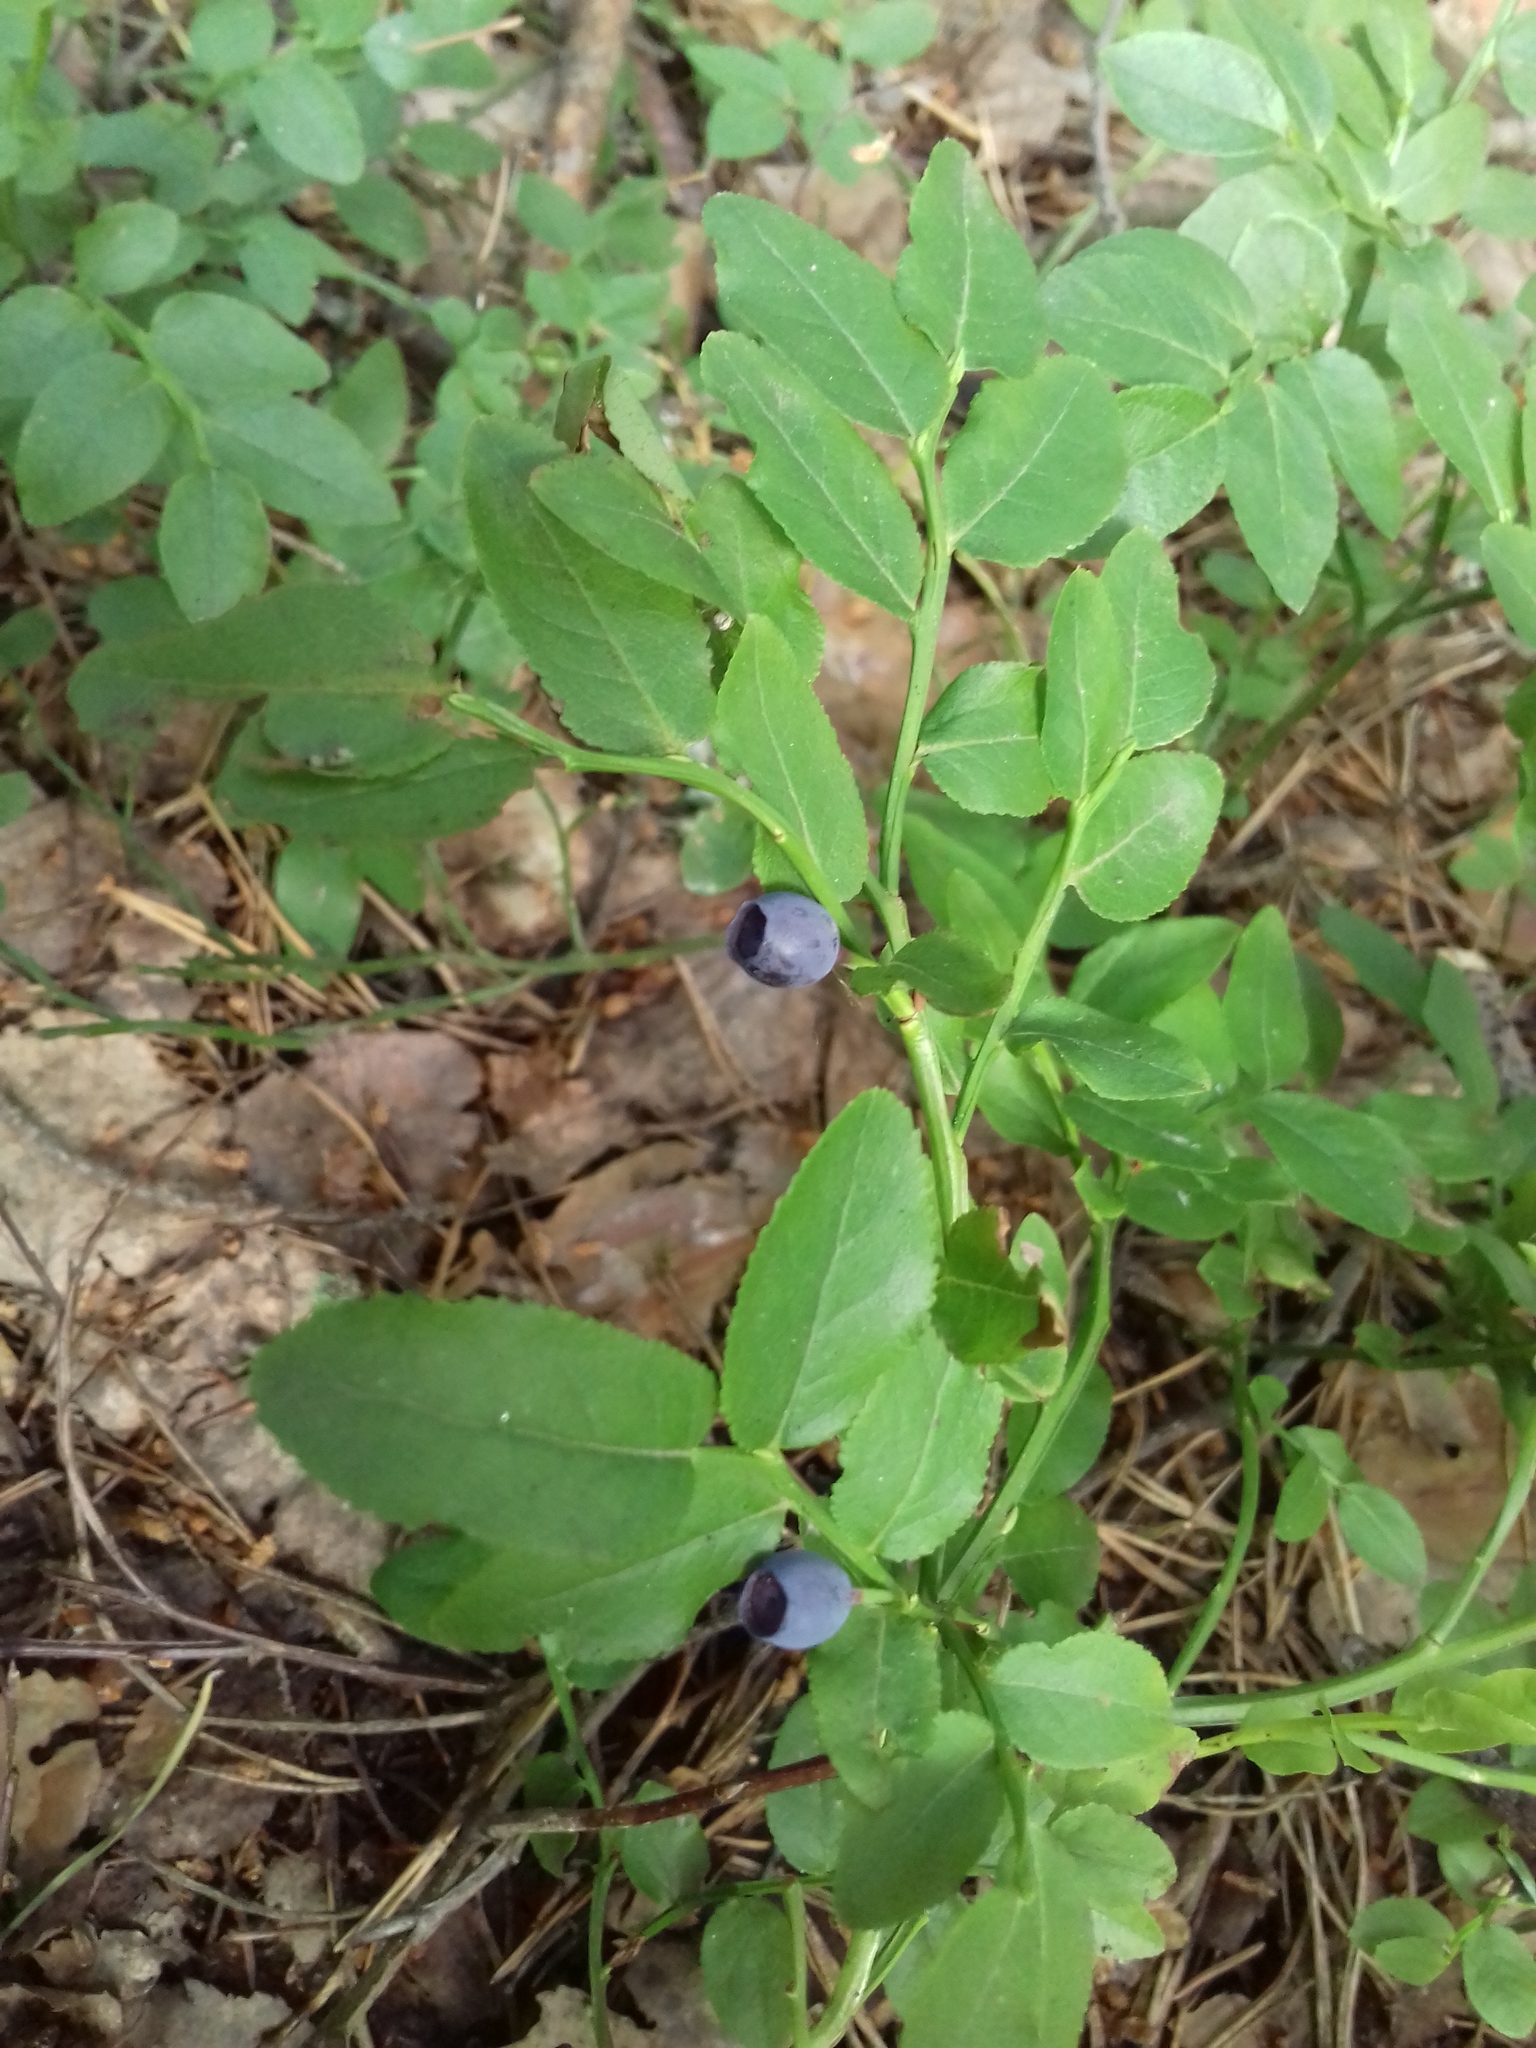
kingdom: Plantae
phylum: Tracheophyta
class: Magnoliopsida
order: Ericales
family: Ericaceae
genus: Vaccinium
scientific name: Vaccinium myrtillus
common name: Bilberry
